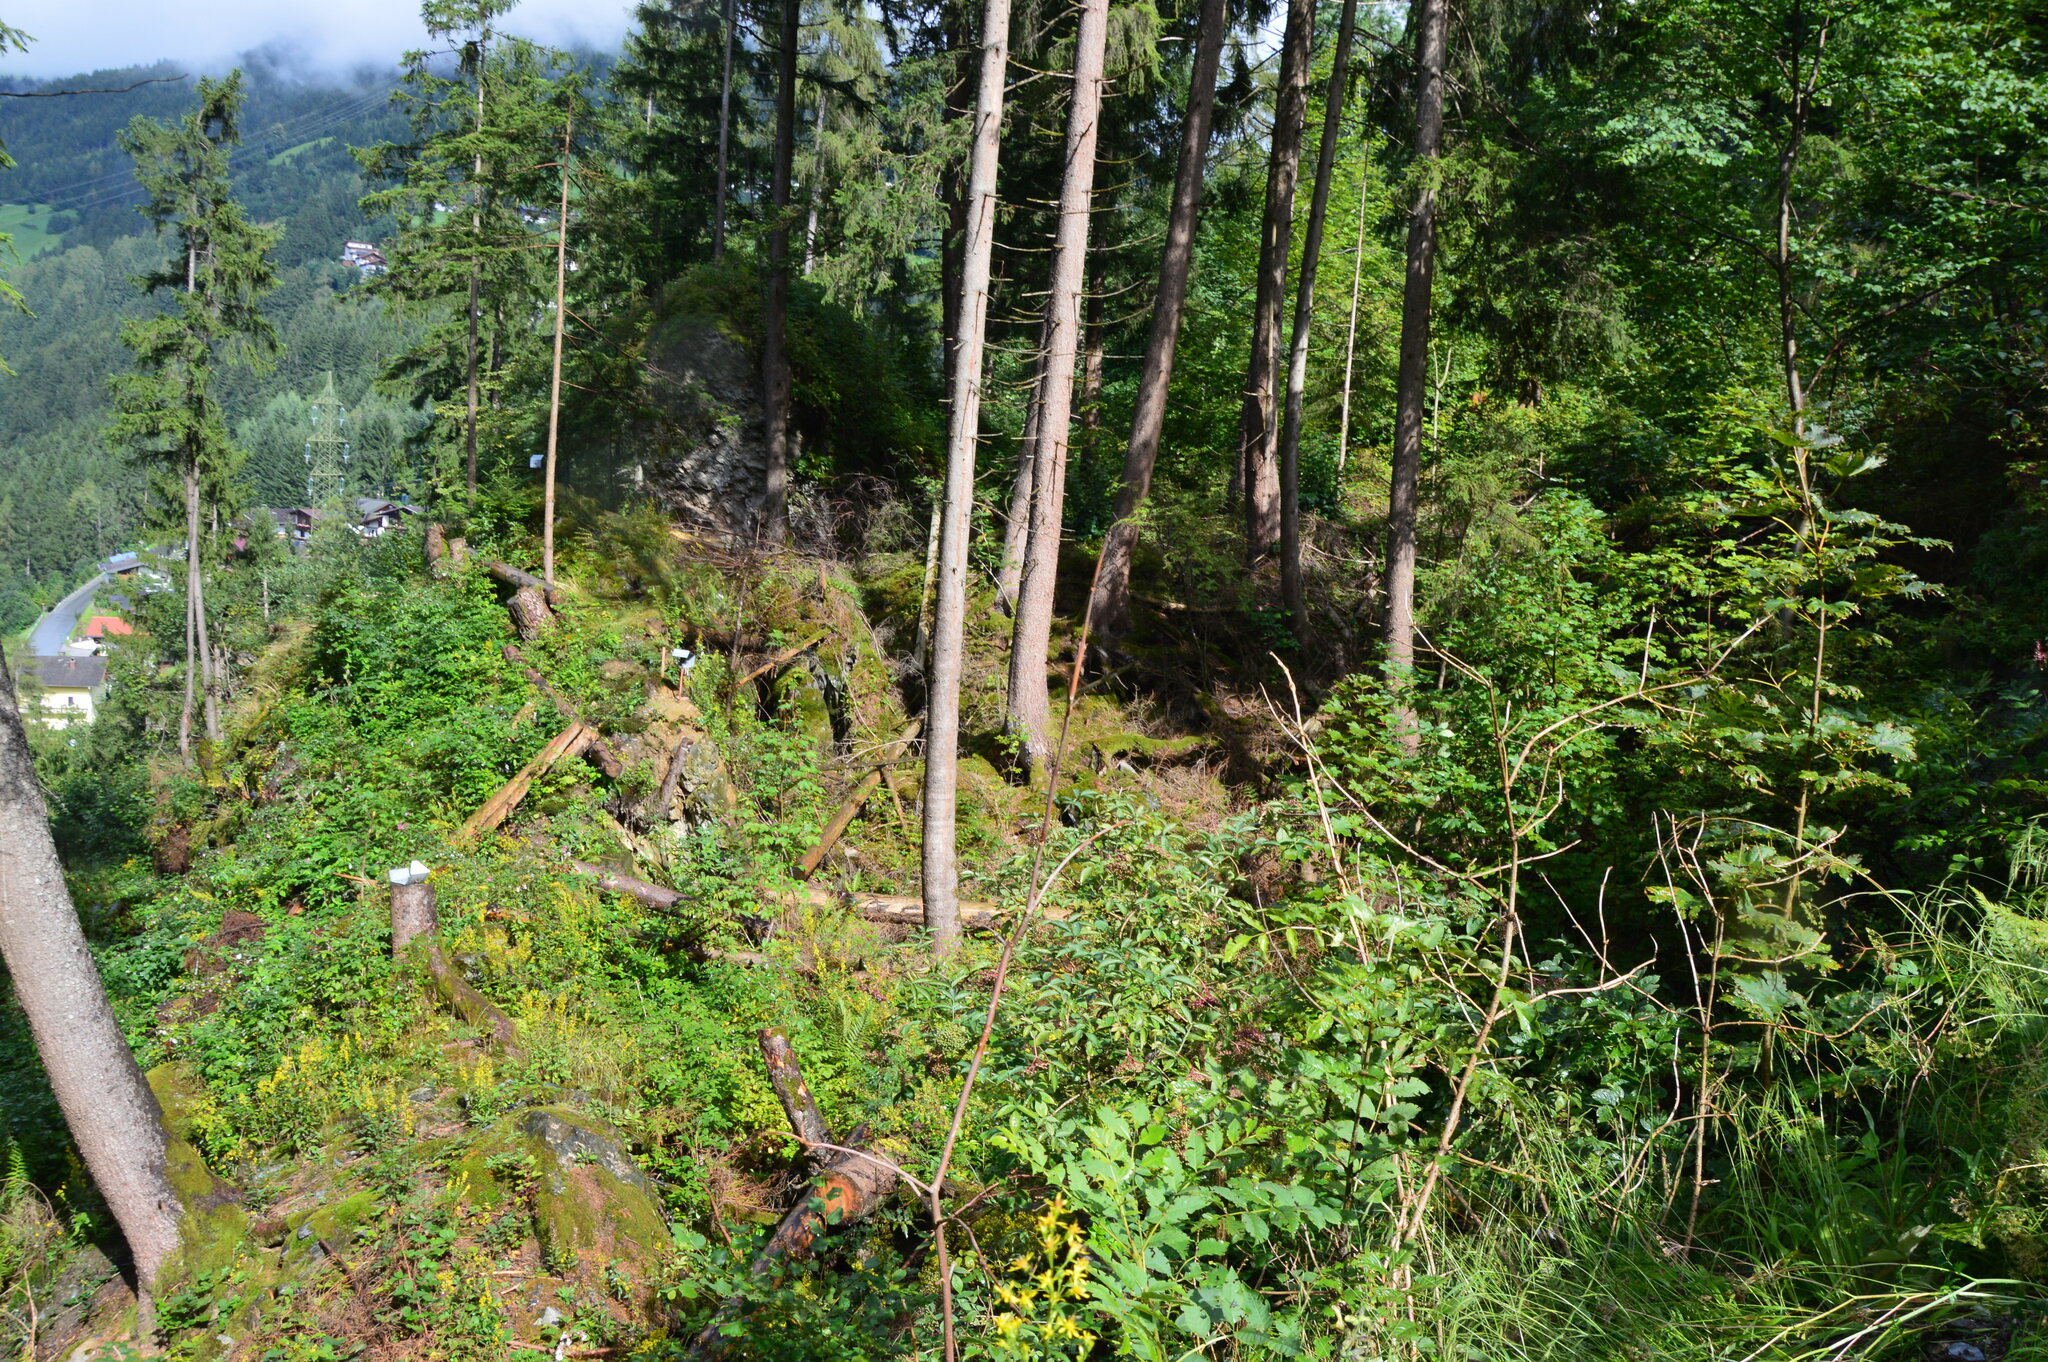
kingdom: Plantae
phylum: Tracheophyta
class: Pinopsida
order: Pinales
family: Pinaceae
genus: Picea
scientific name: Picea abies
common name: Norway spruce
